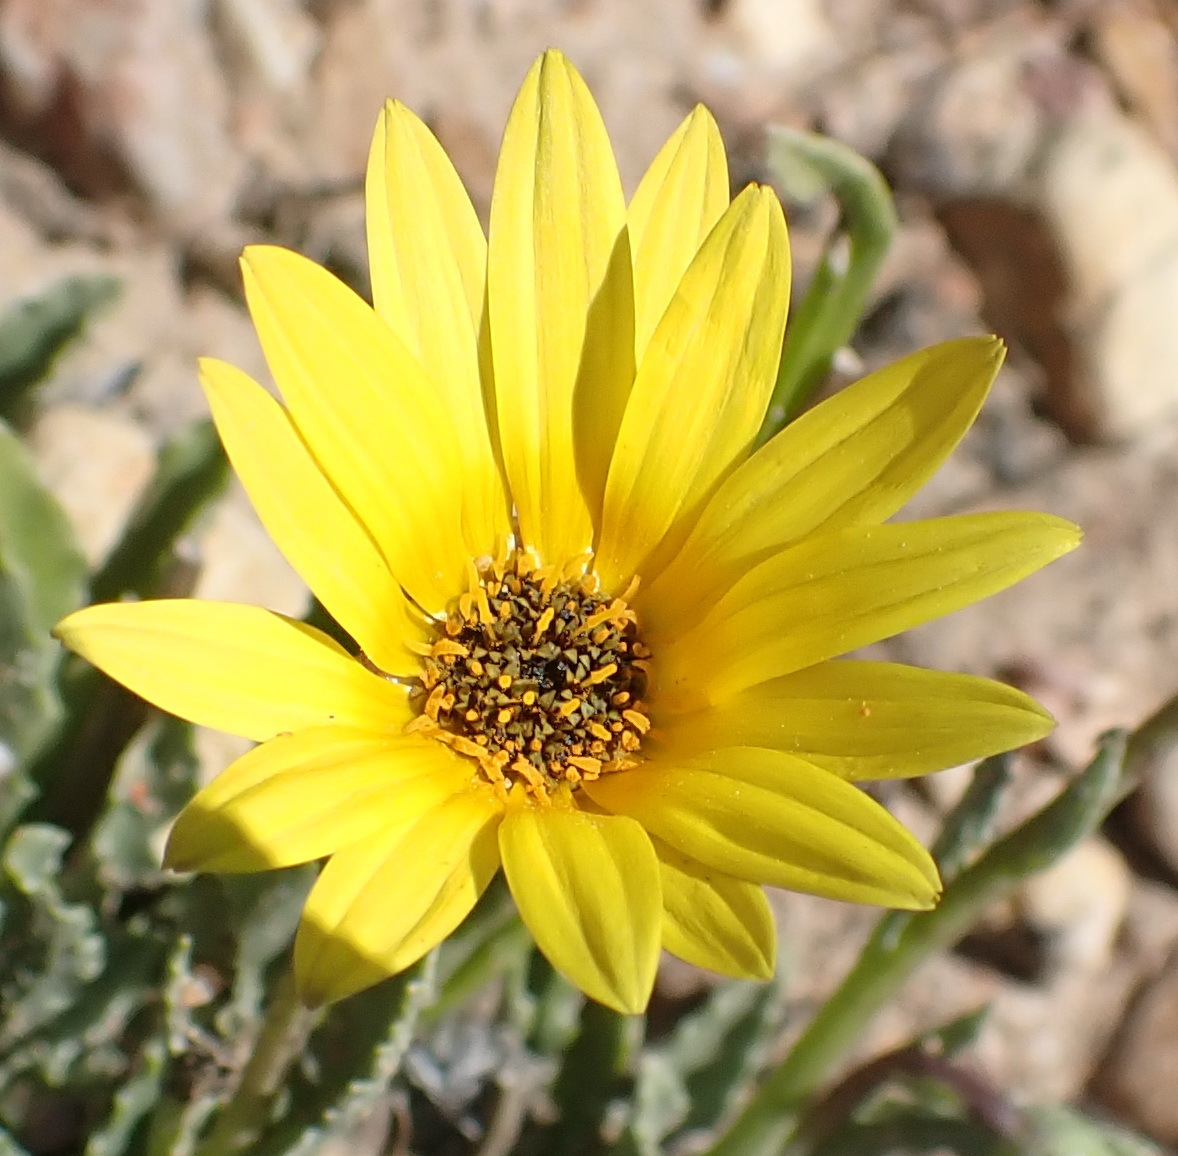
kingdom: Plantae
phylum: Tracheophyta
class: Magnoliopsida
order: Asterales
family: Asteraceae
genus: Arctotis
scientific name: Arctotis lanceolata
